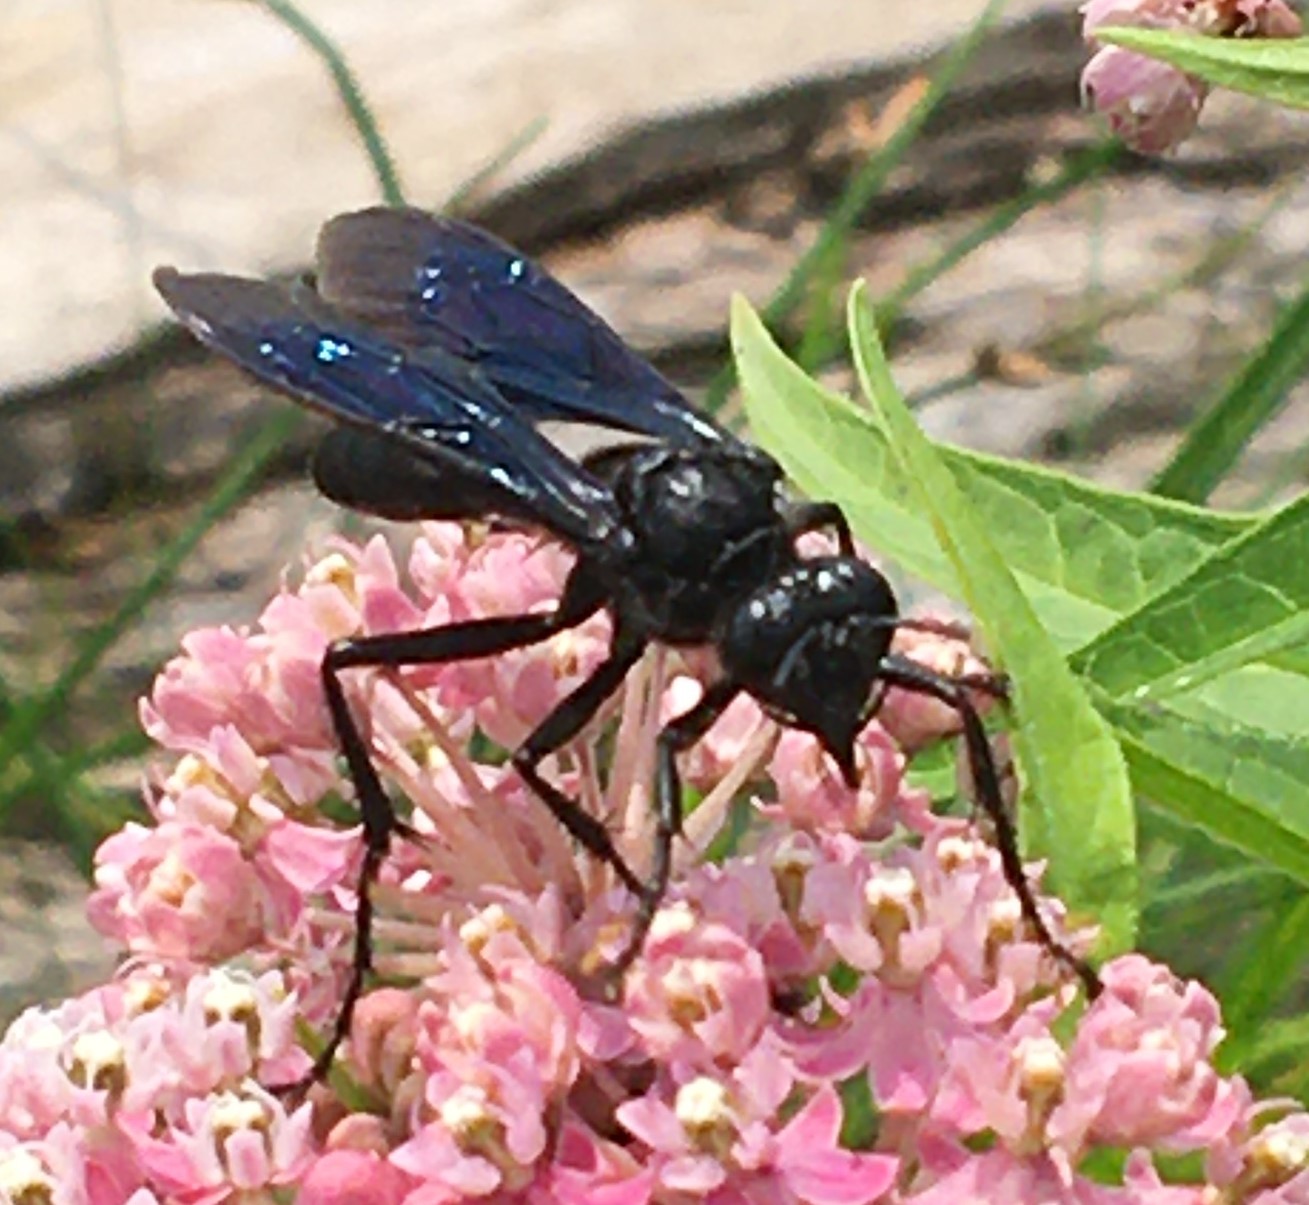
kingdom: Animalia
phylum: Arthropoda
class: Insecta
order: Hymenoptera
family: Sphecidae
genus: Sphex
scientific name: Sphex pensylvanicus
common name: Great black digger wasp
